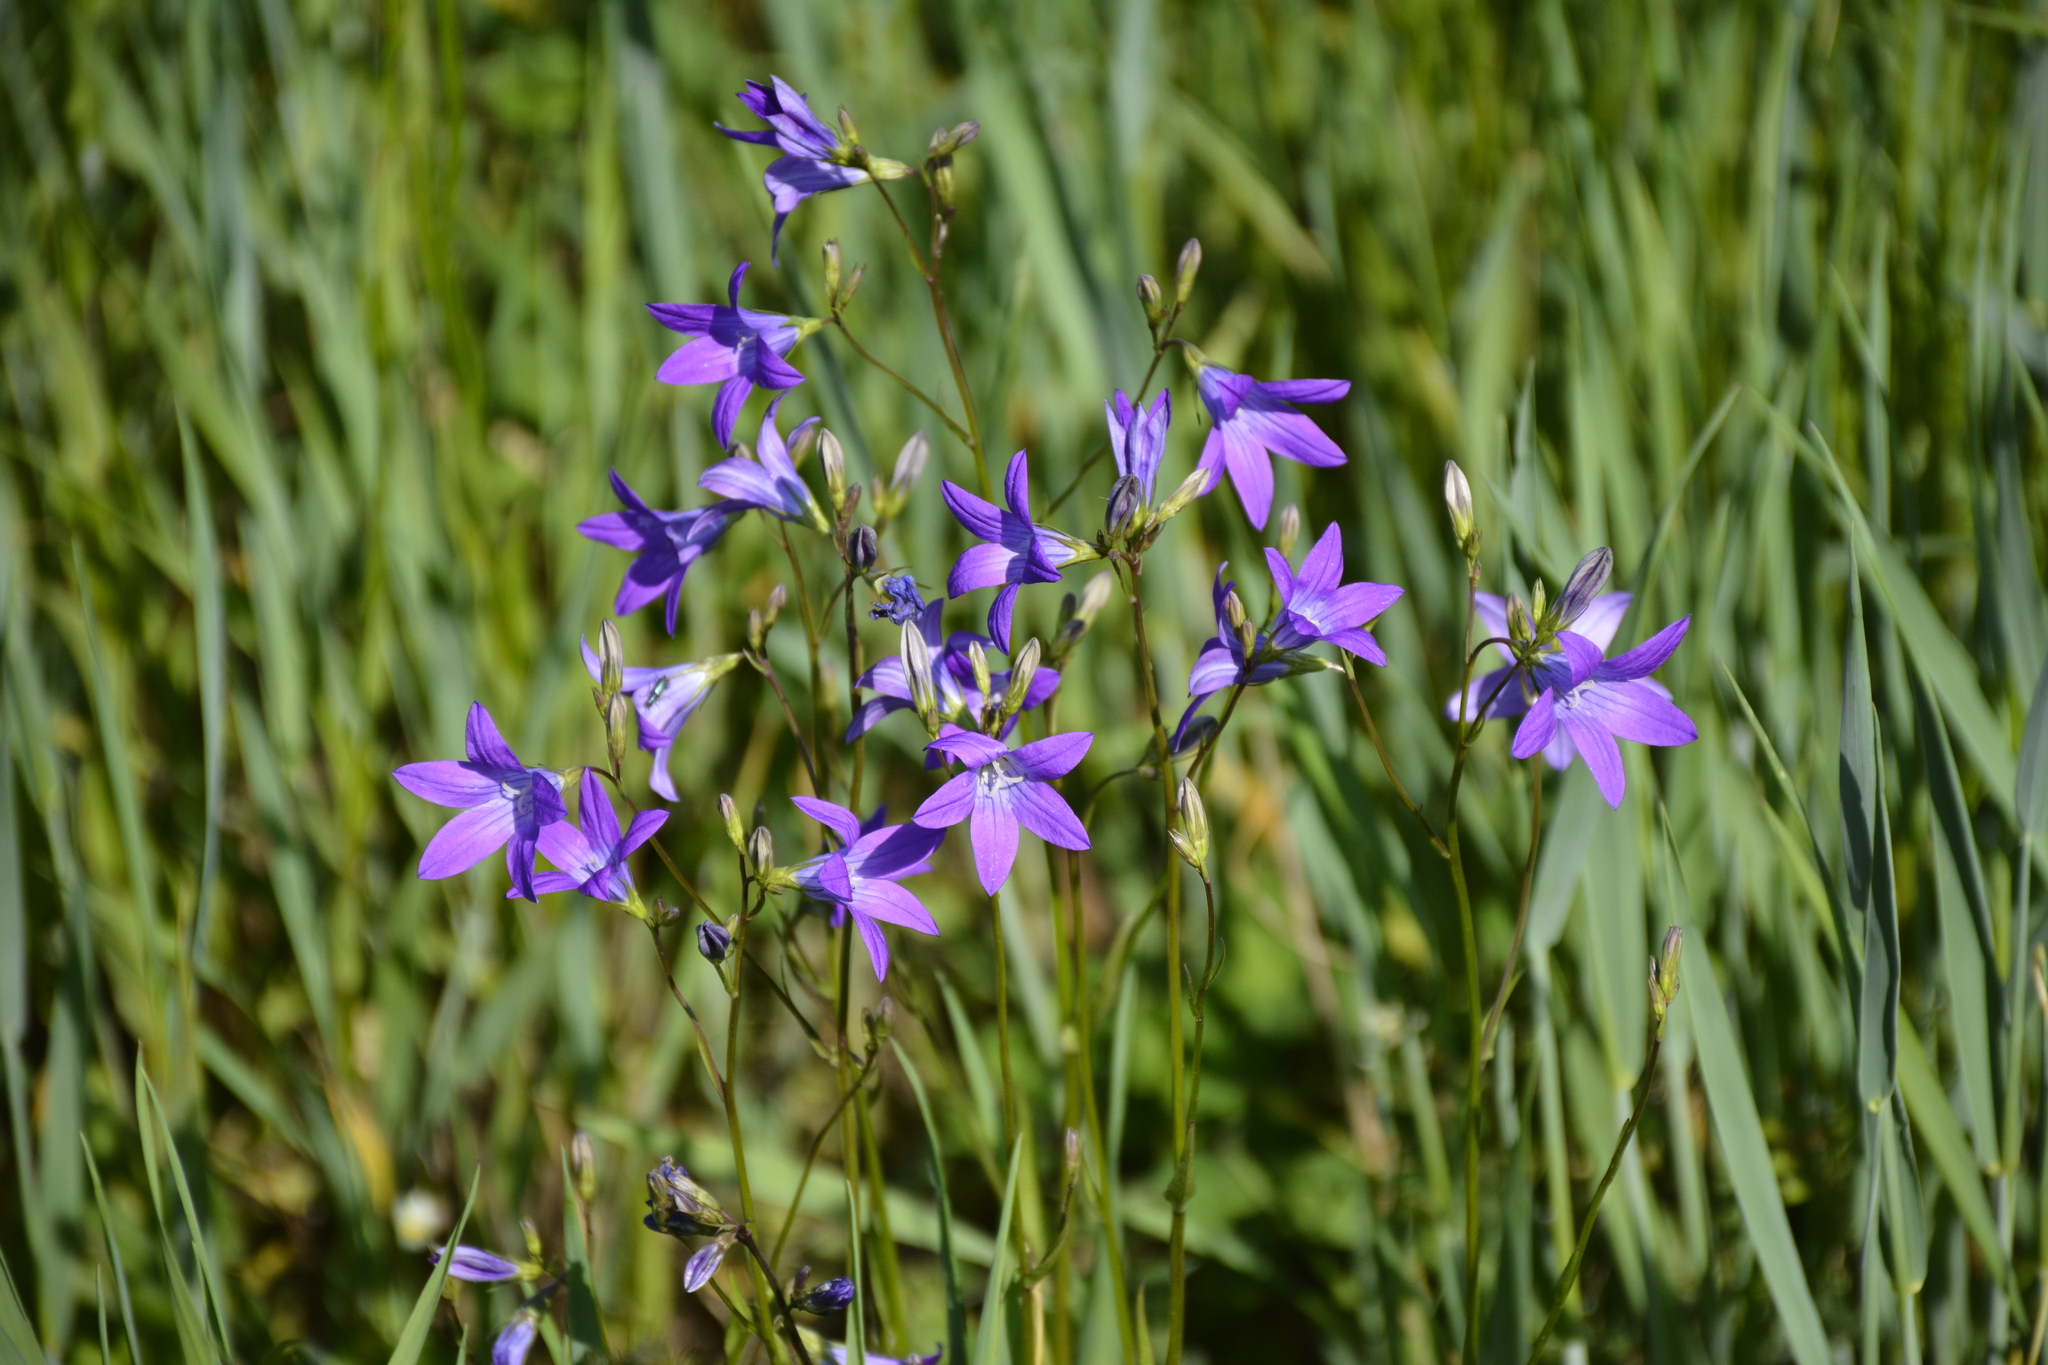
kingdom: Plantae
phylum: Tracheophyta
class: Magnoliopsida
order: Asterales
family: Campanulaceae
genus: Campanula
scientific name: Campanula patula
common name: Spreading bellflower
